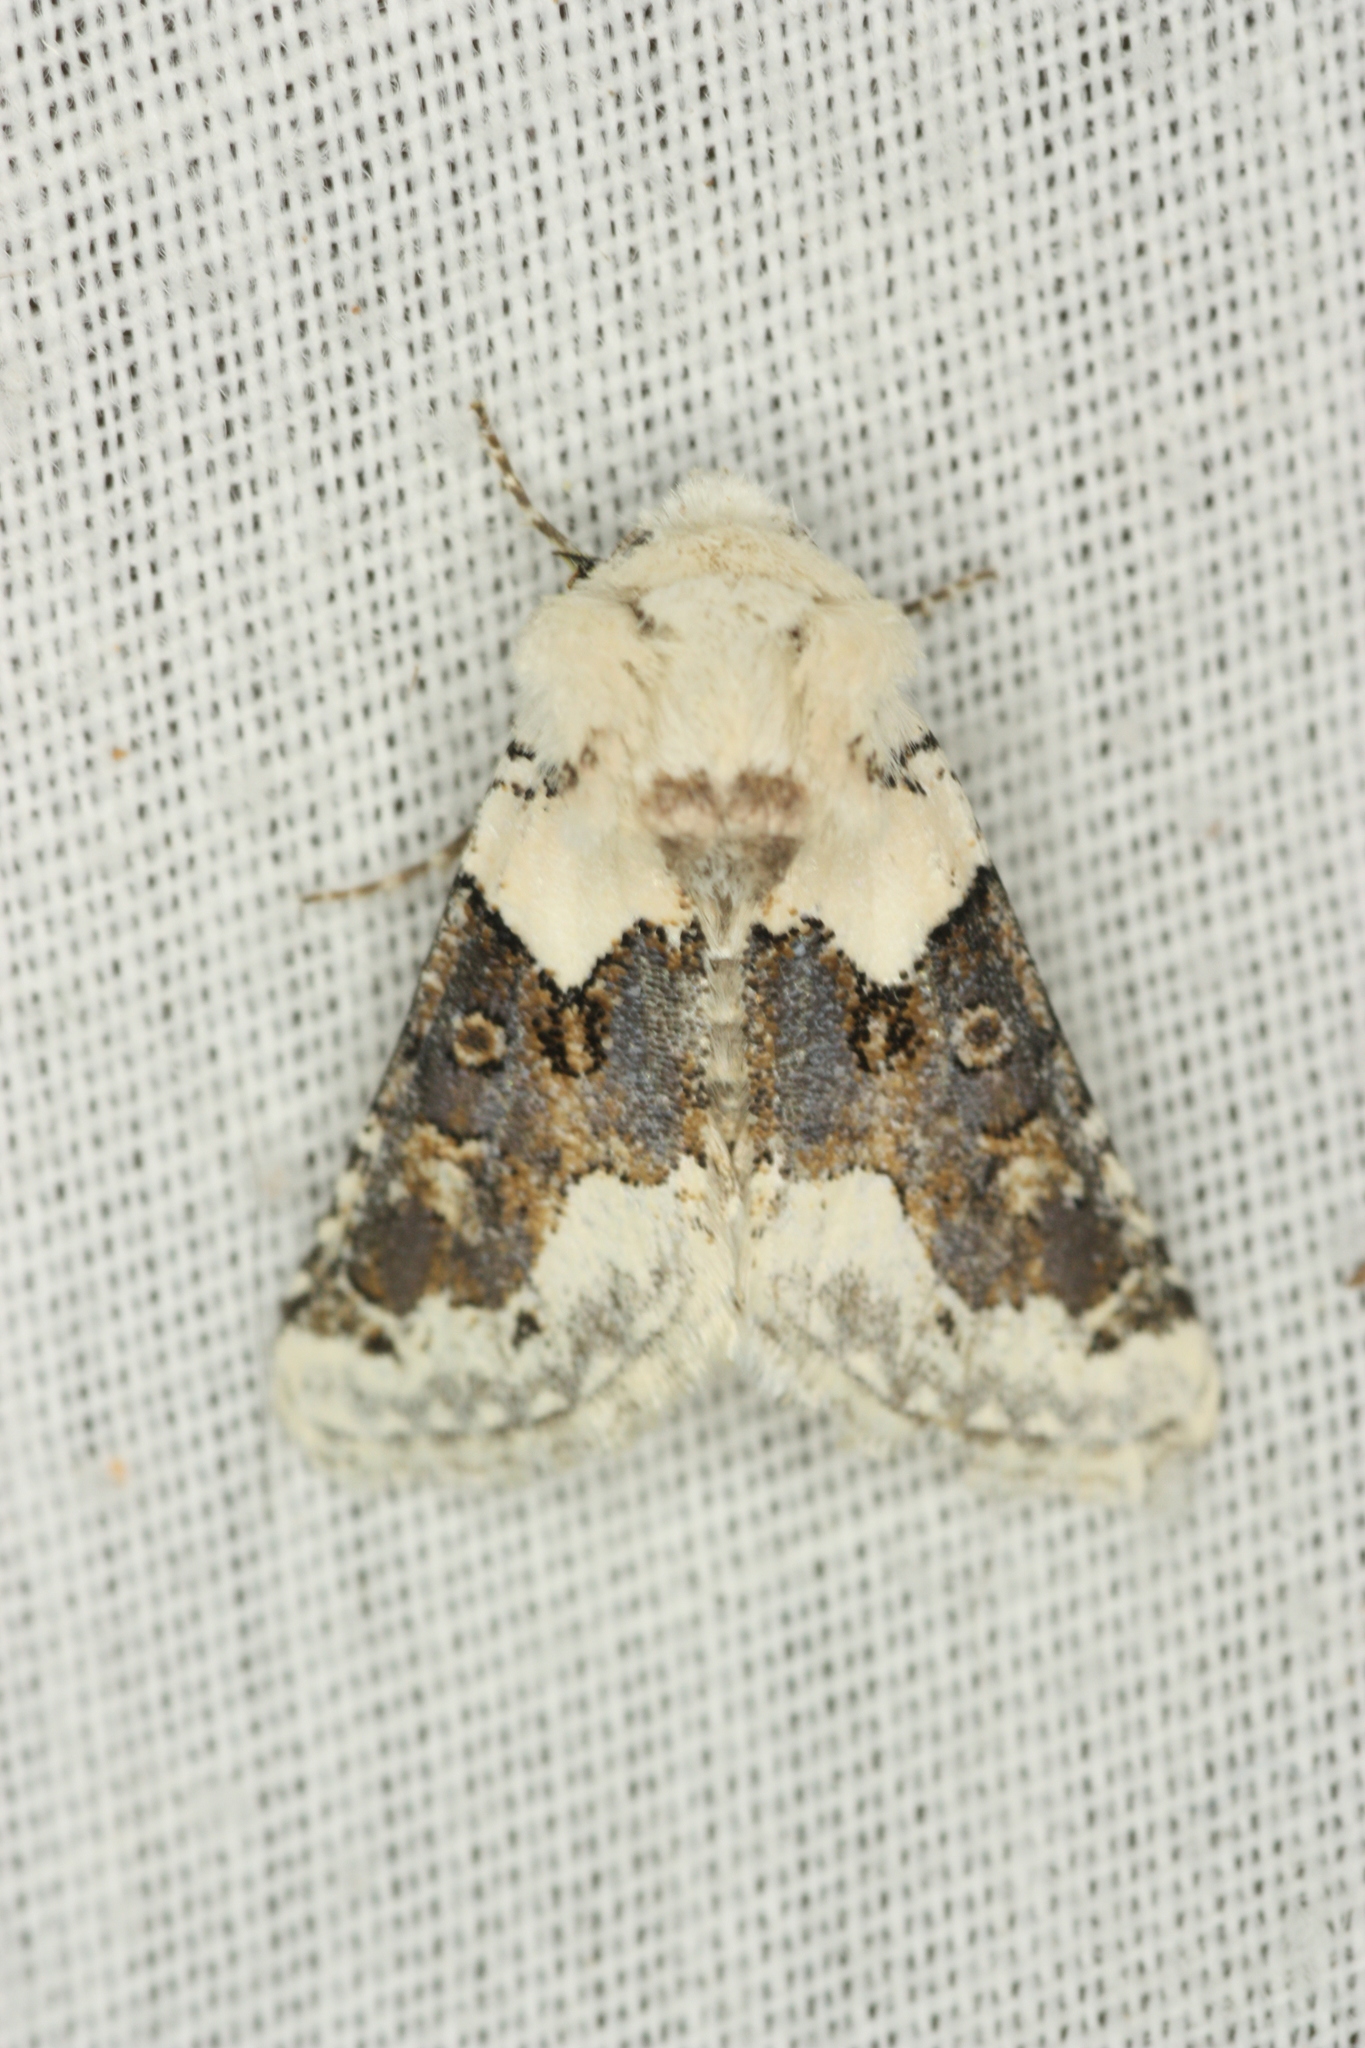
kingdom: Animalia
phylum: Arthropoda
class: Insecta
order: Lepidoptera
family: Noctuidae
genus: Triocnemis
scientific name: Triocnemis saporis
